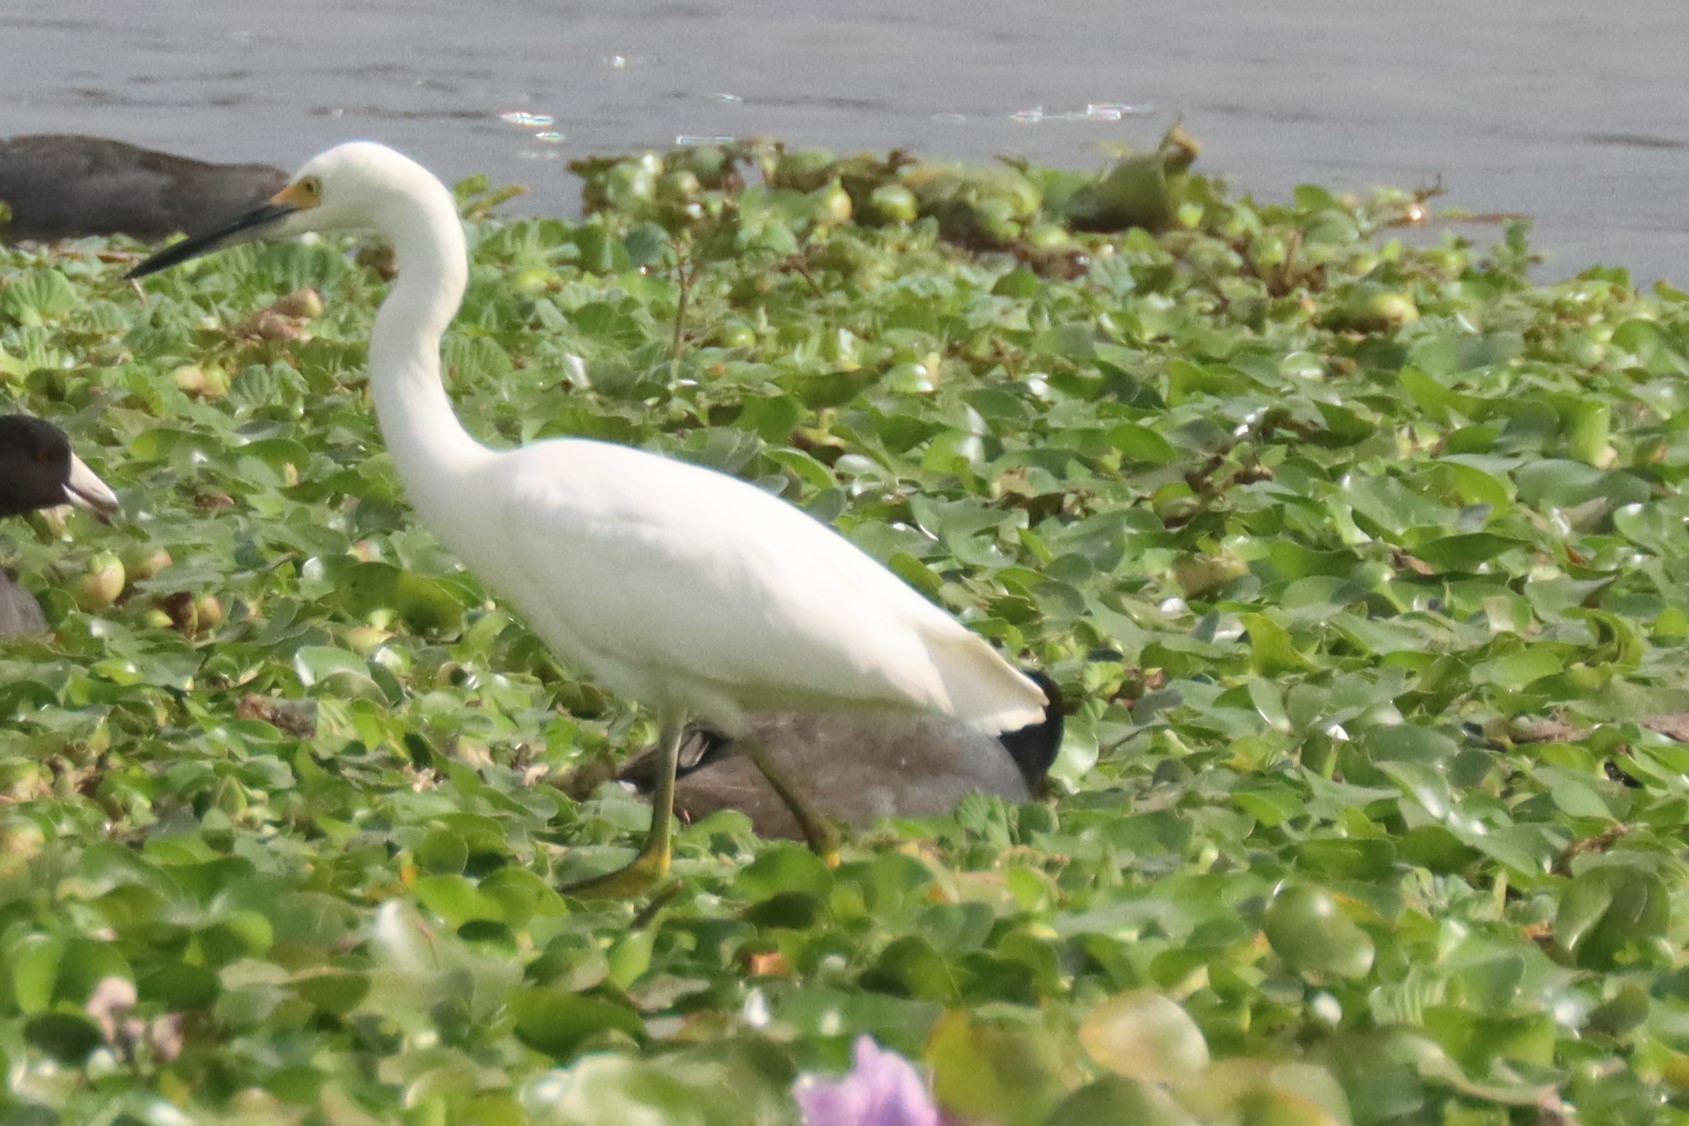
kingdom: Animalia
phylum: Chordata
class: Aves
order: Pelecaniformes
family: Ardeidae
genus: Egretta
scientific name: Egretta thula
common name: Snowy egret
